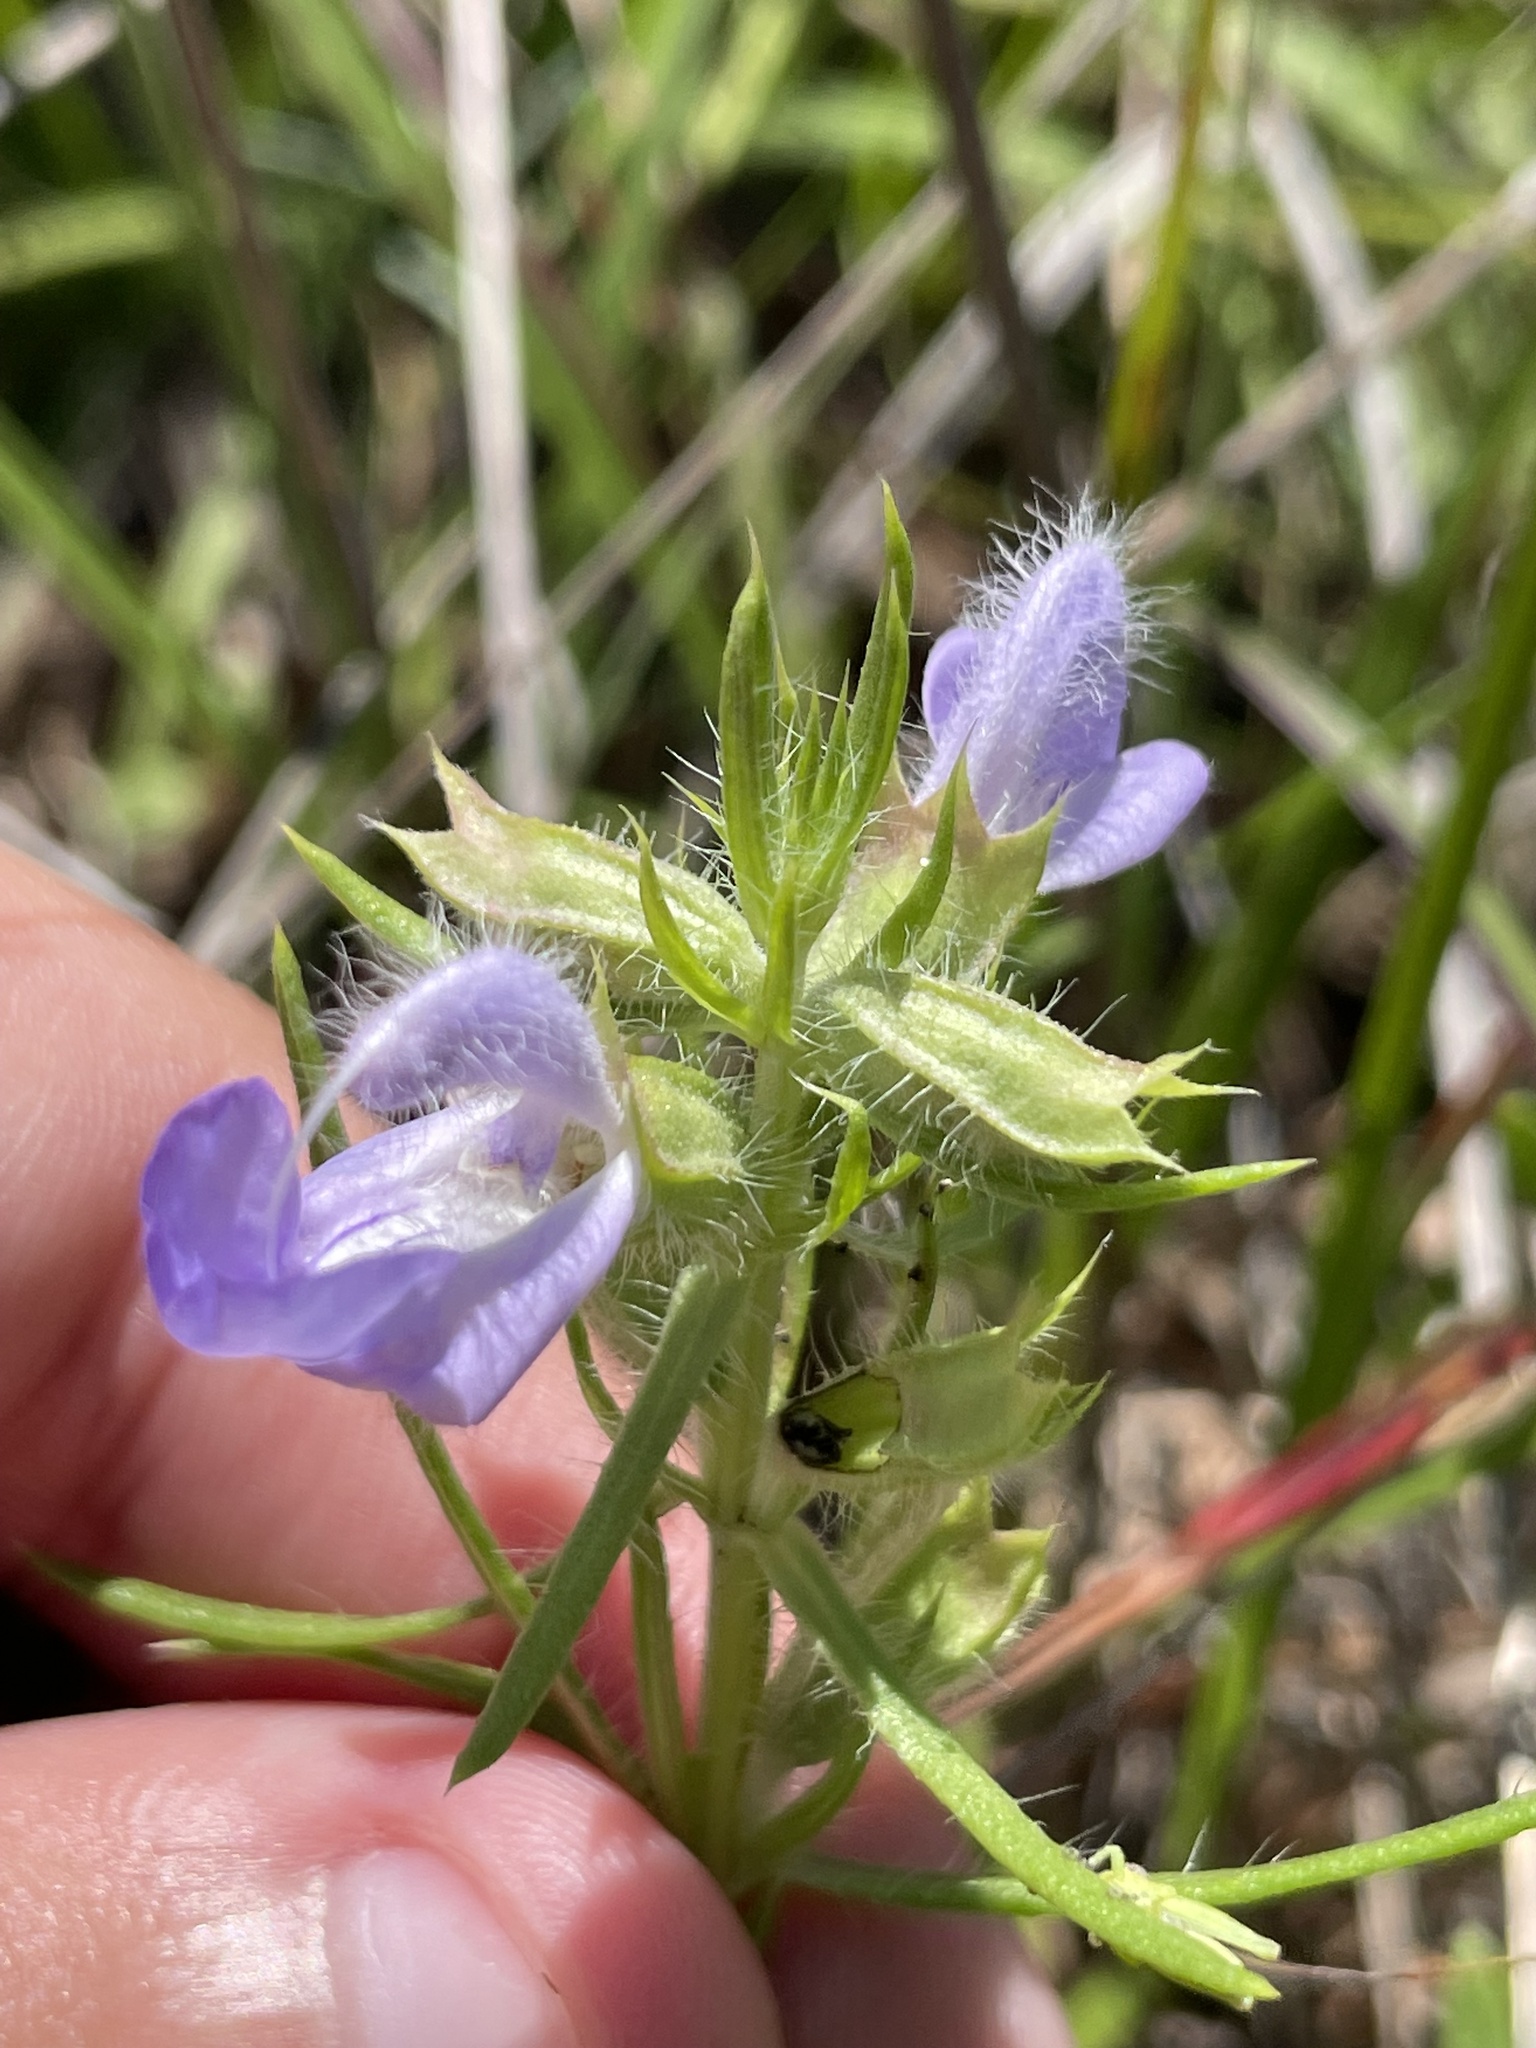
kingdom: Plantae
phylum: Tracheophyta
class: Magnoliopsida
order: Lamiales
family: Lamiaceae
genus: Salvia
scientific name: Salvia engelmannii
